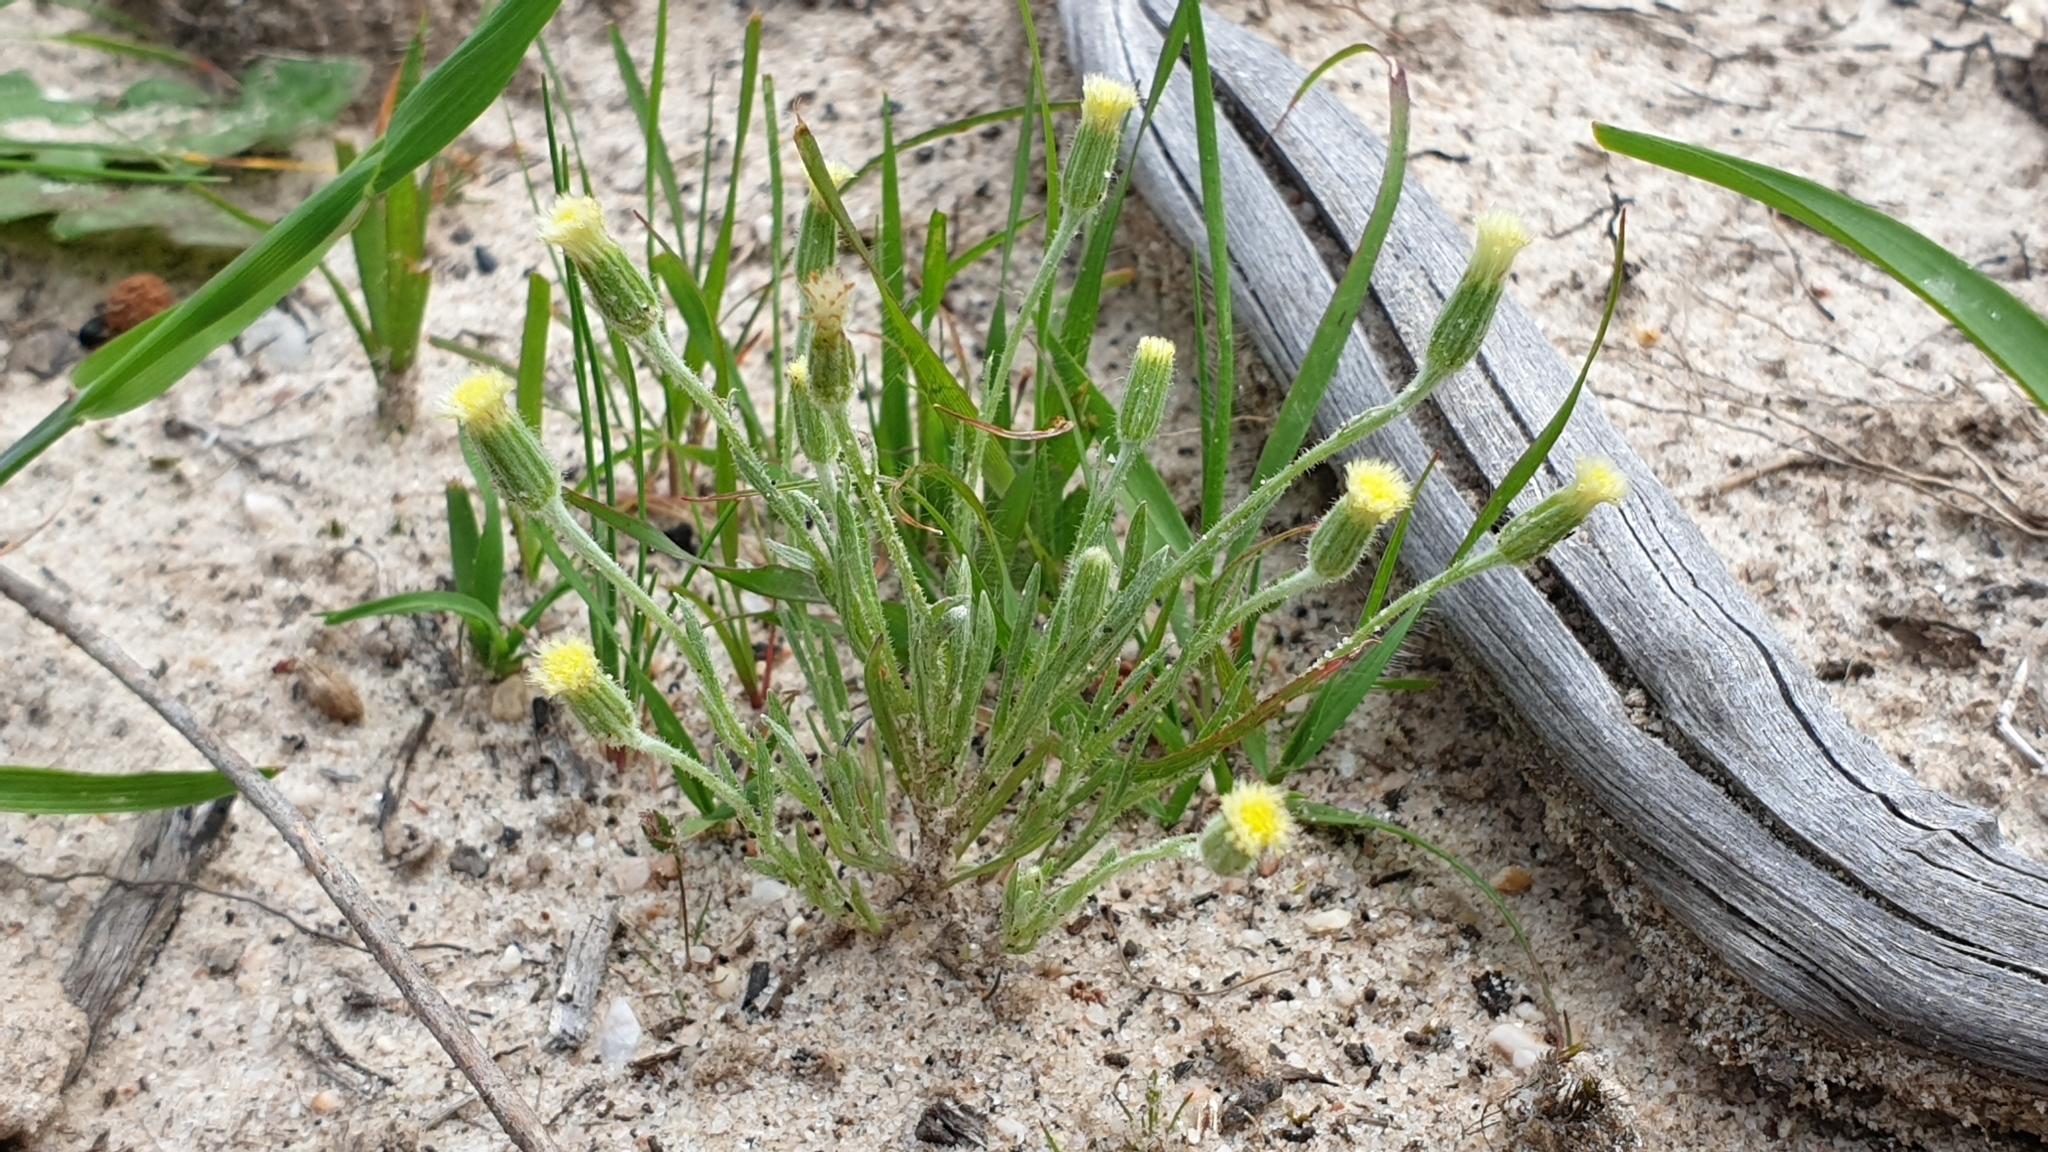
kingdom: Plantae
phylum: Tracheophyta
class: Magnoliopsida
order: Asterales
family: Asteraceae
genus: Millotia
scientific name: Millotia tenuifolia
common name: Soft millotia
